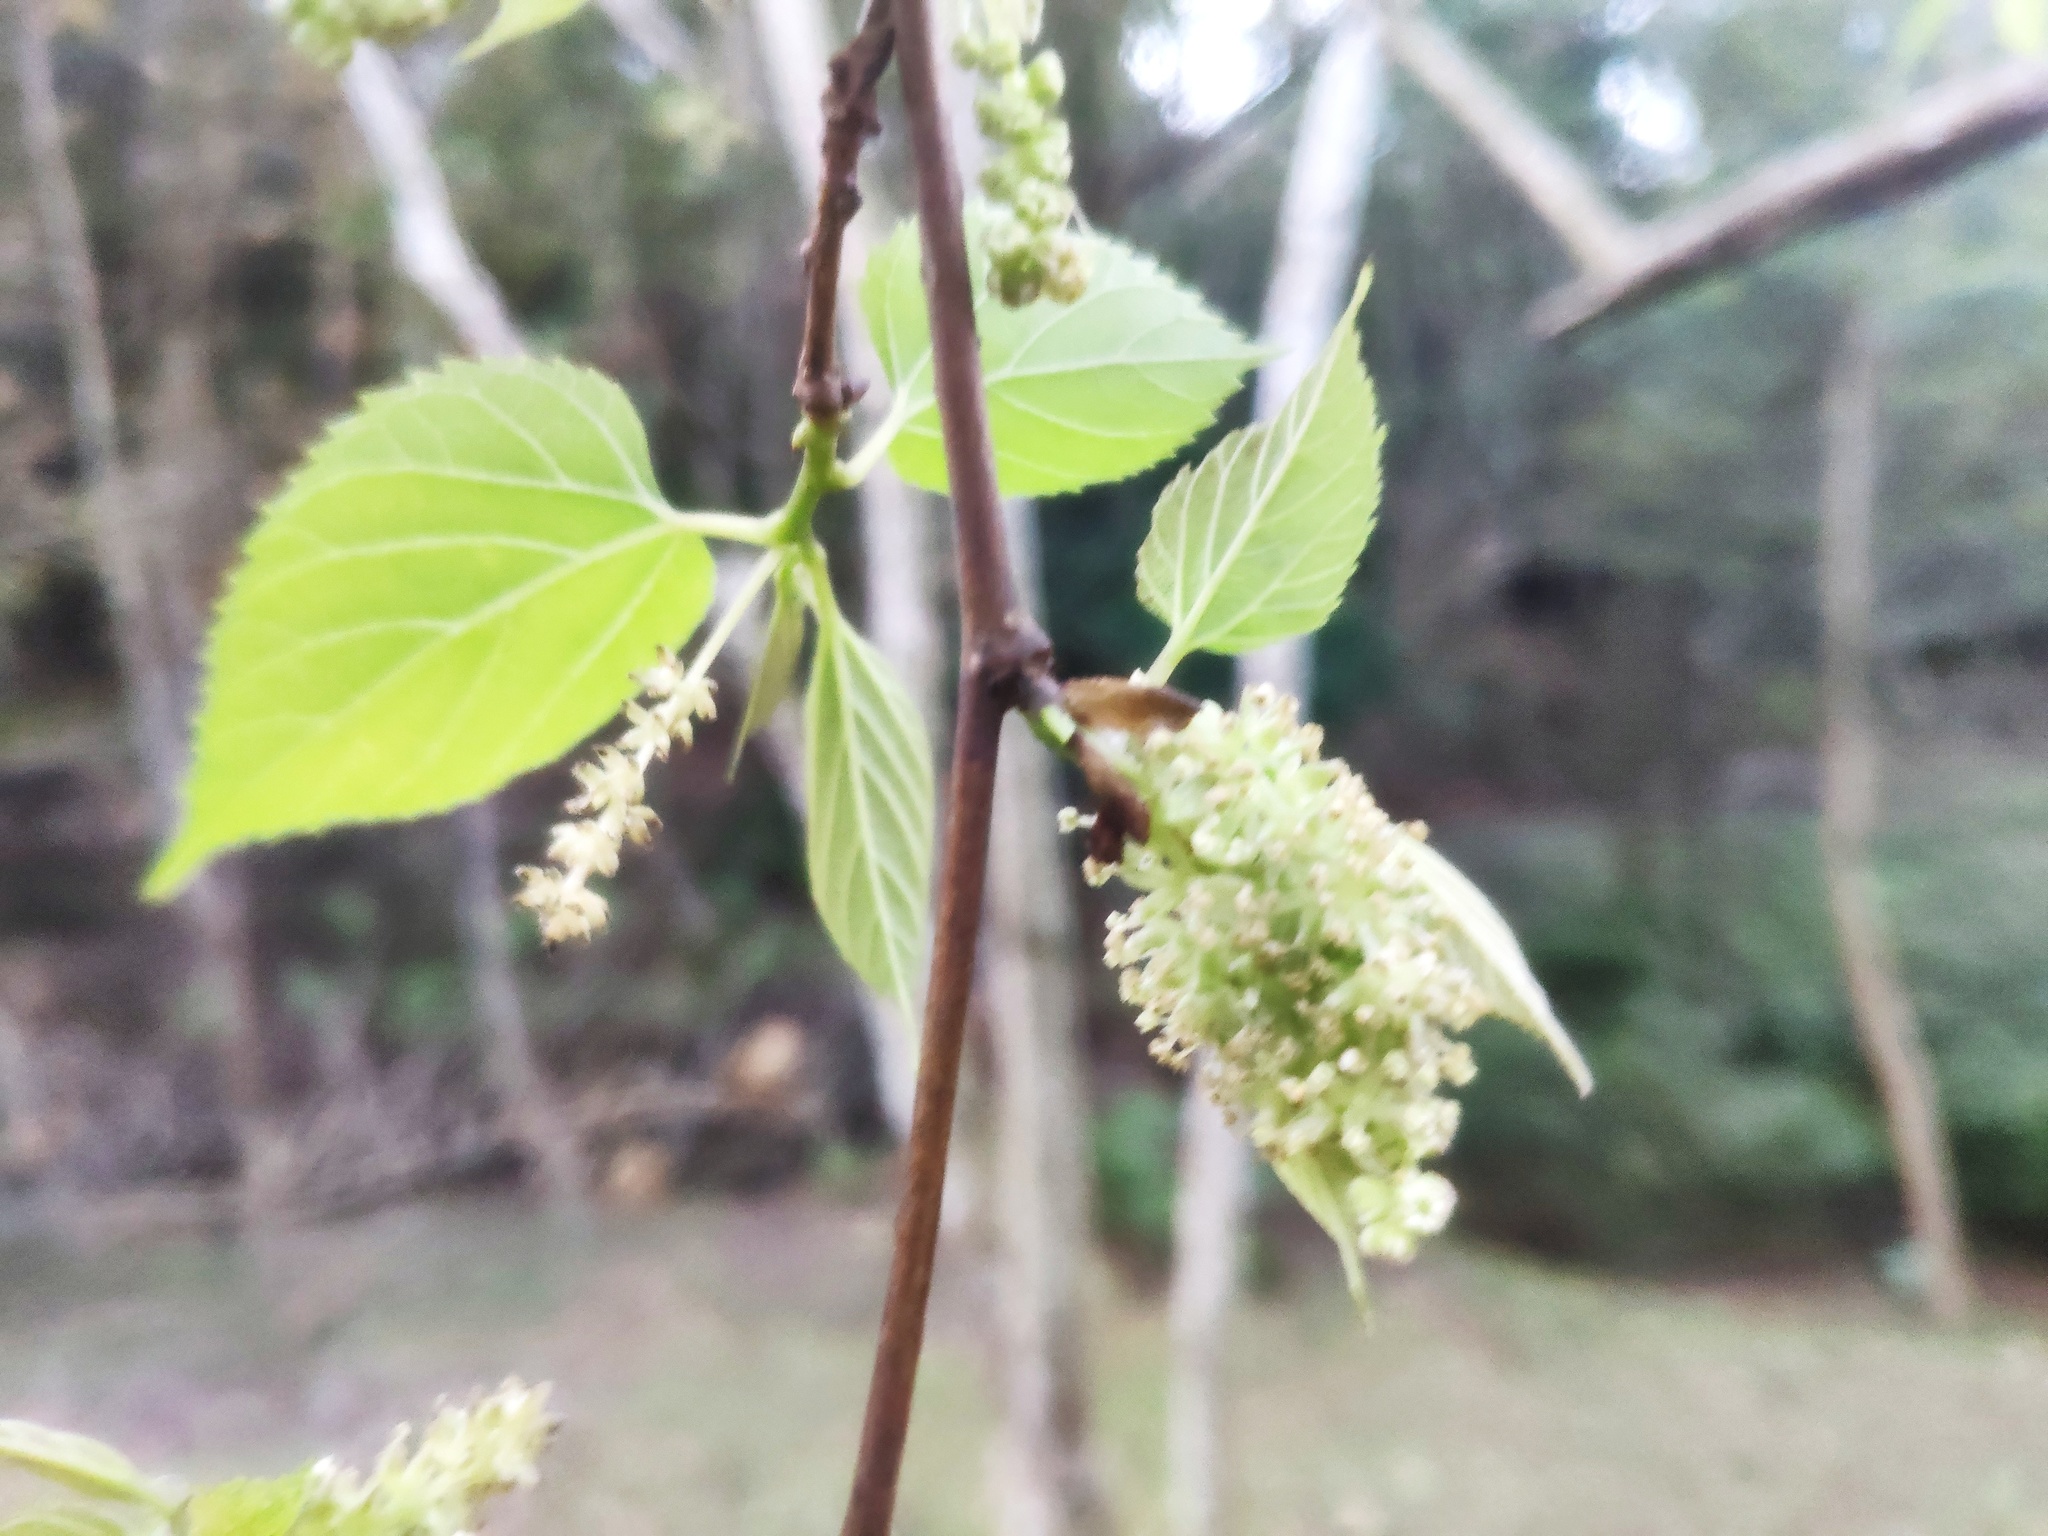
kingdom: Plantae
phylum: Tracheophyta
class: Magnoliopsida
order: Rosales
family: Moraceae
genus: Morus
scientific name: Morus indica
